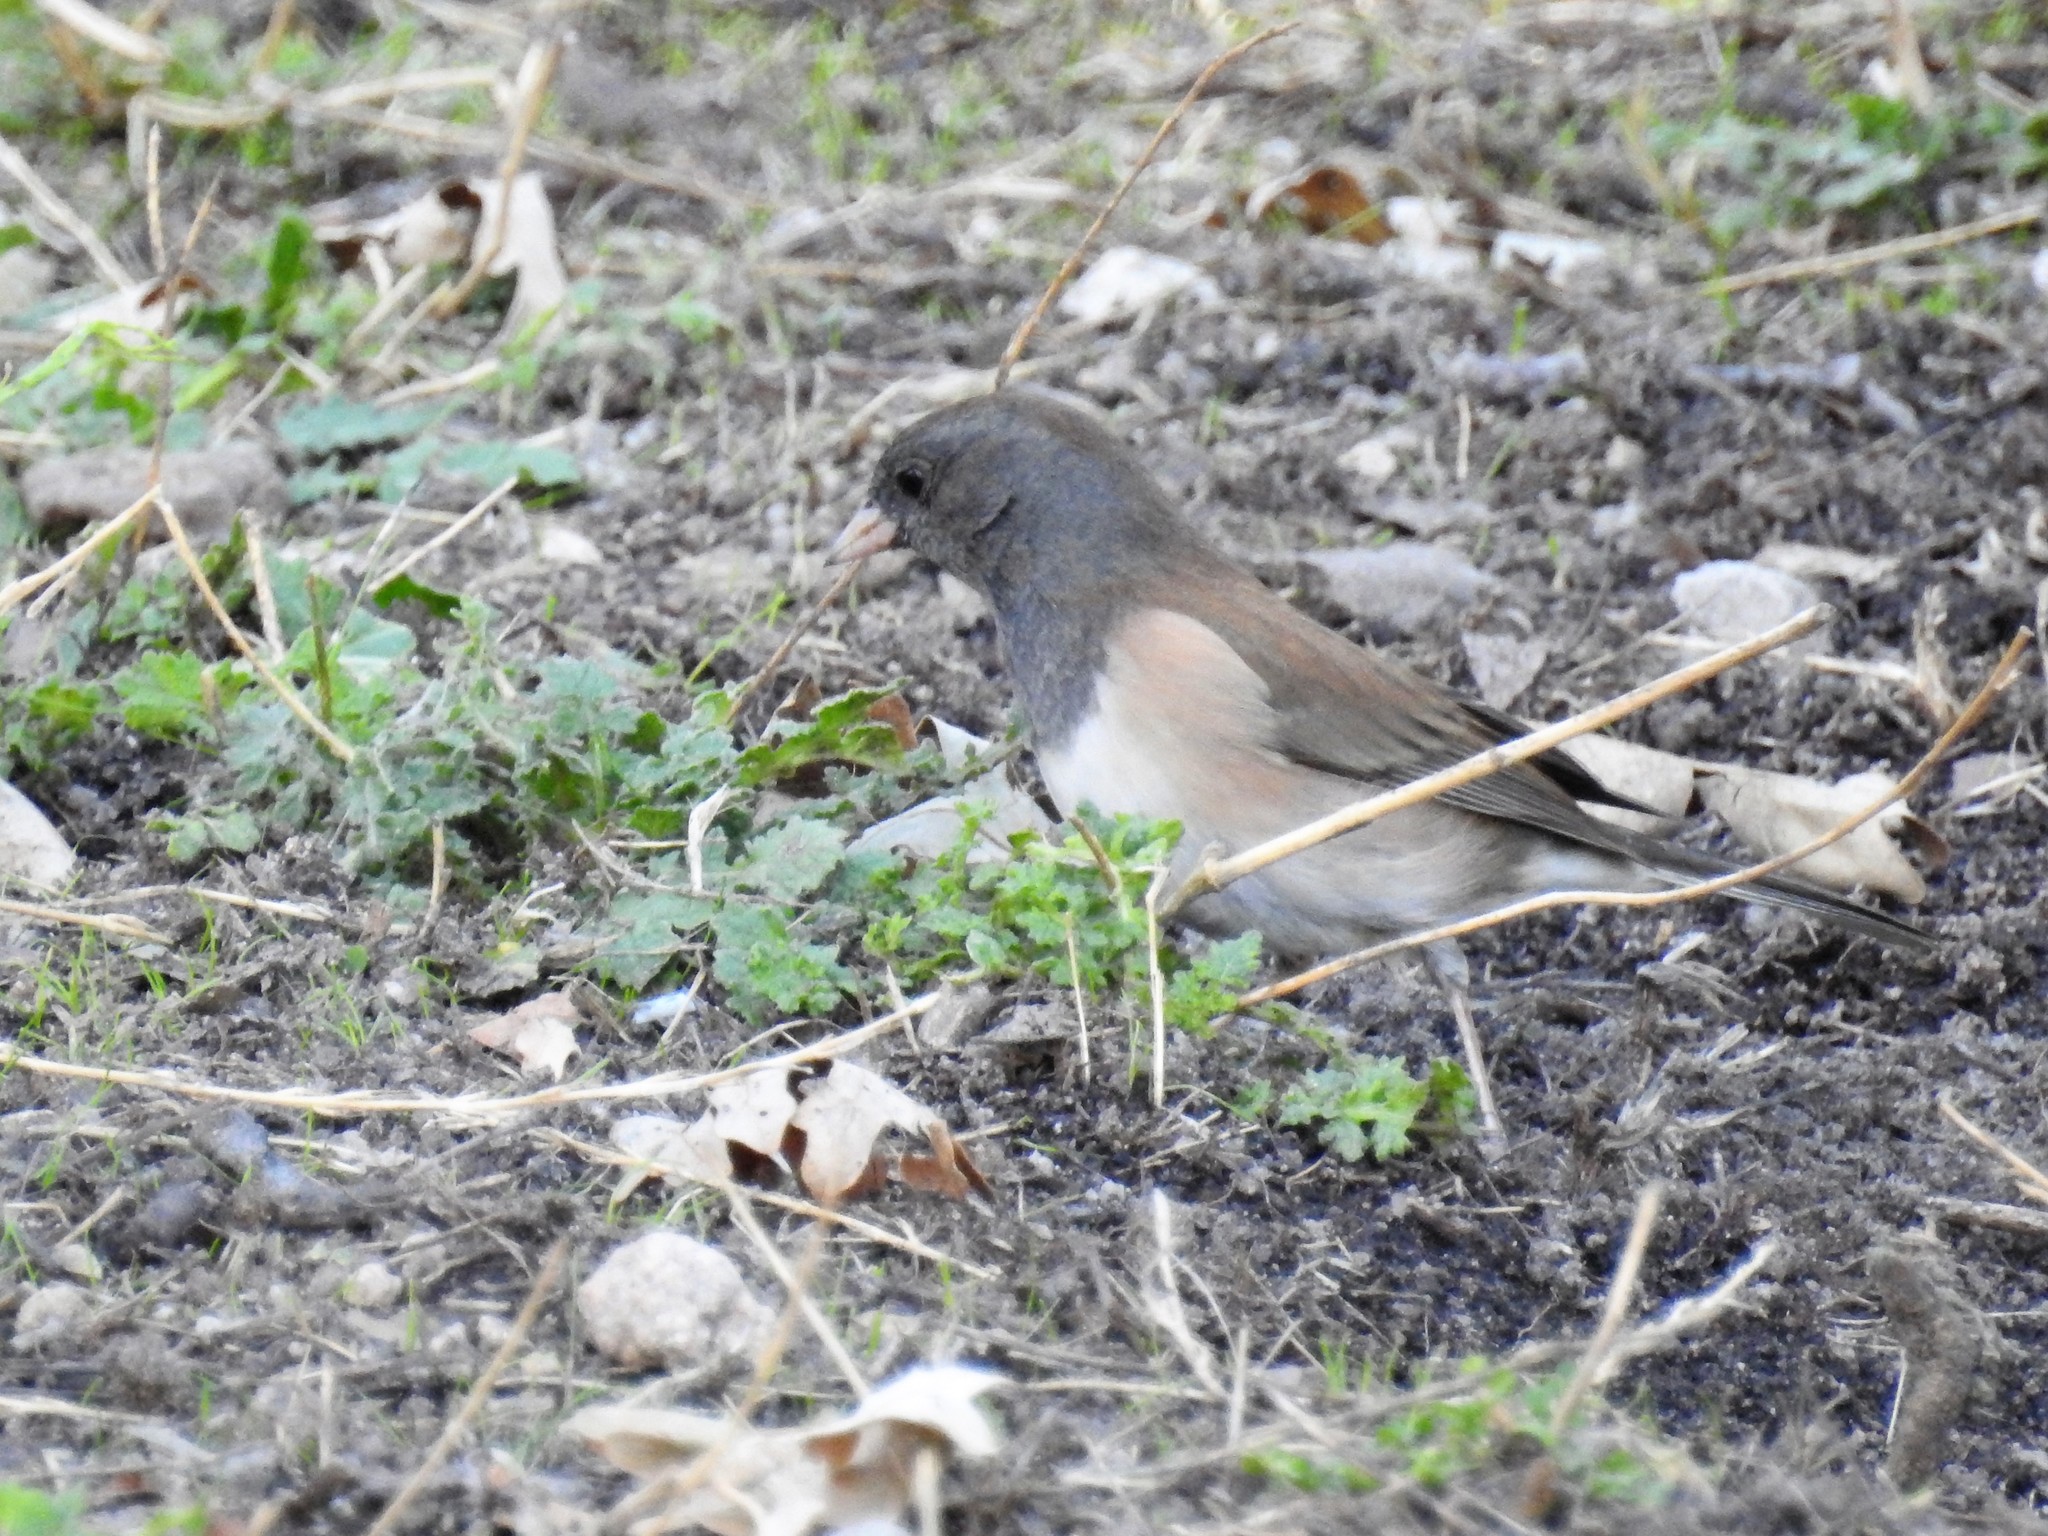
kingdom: Animalia
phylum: Chordata
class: Aves
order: Passeriformes
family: Passerellidae
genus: Junco
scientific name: Junco hyemalis
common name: Dark-eyed junco
